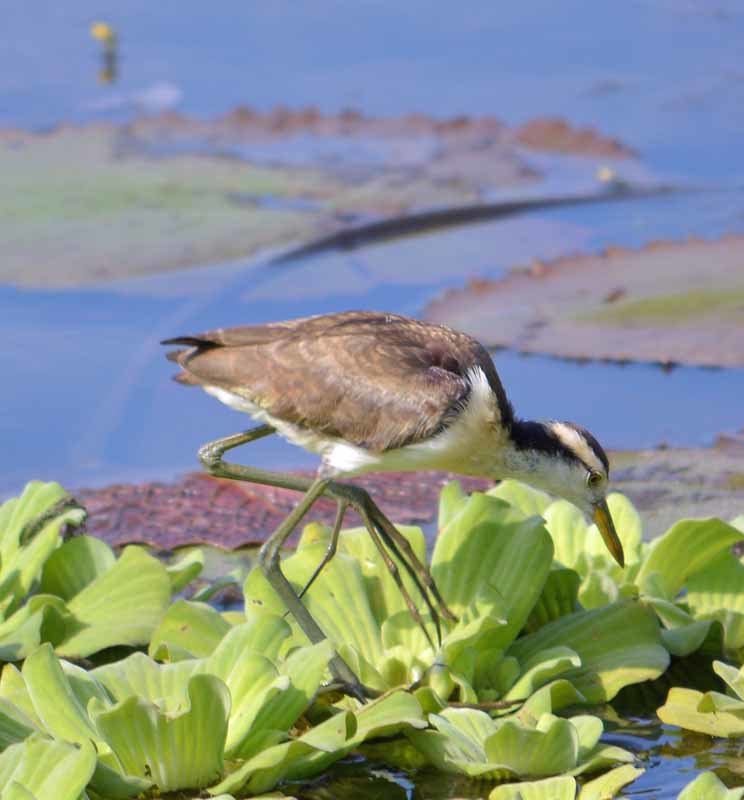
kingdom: Animalia
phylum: Chordata
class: Aves
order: Charadriiformes
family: Jacanidae
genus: Jacana
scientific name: Jacana spinosa
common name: Northern jacana
